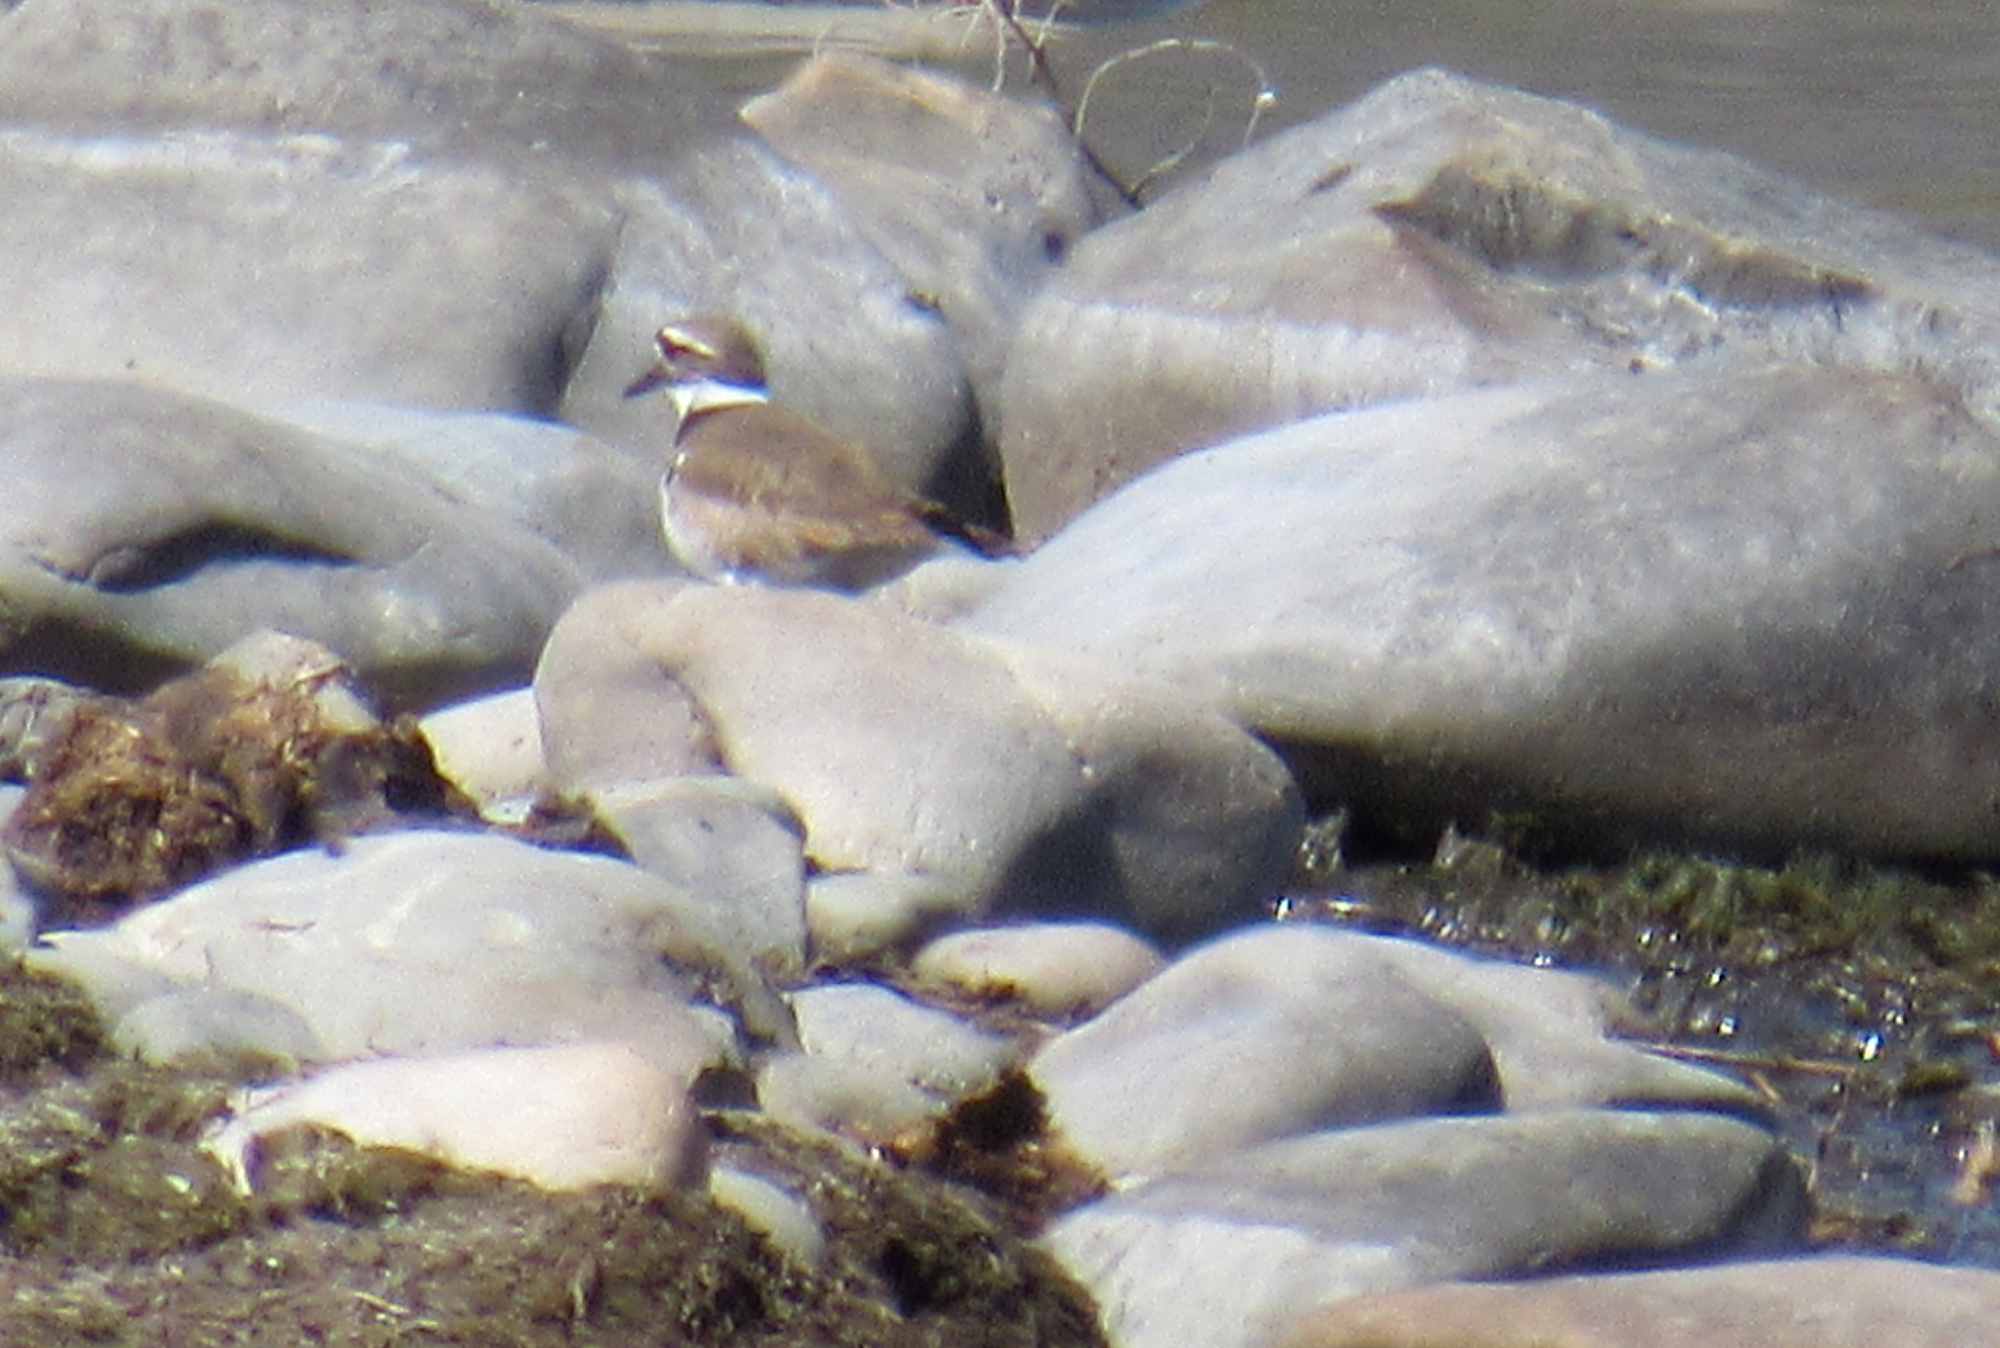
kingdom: Animalia
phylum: Chordata
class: Aves
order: Charadriiformes
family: Charadriidae
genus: Charadrius
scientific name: Charadrius vociferus
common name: Killdeer
